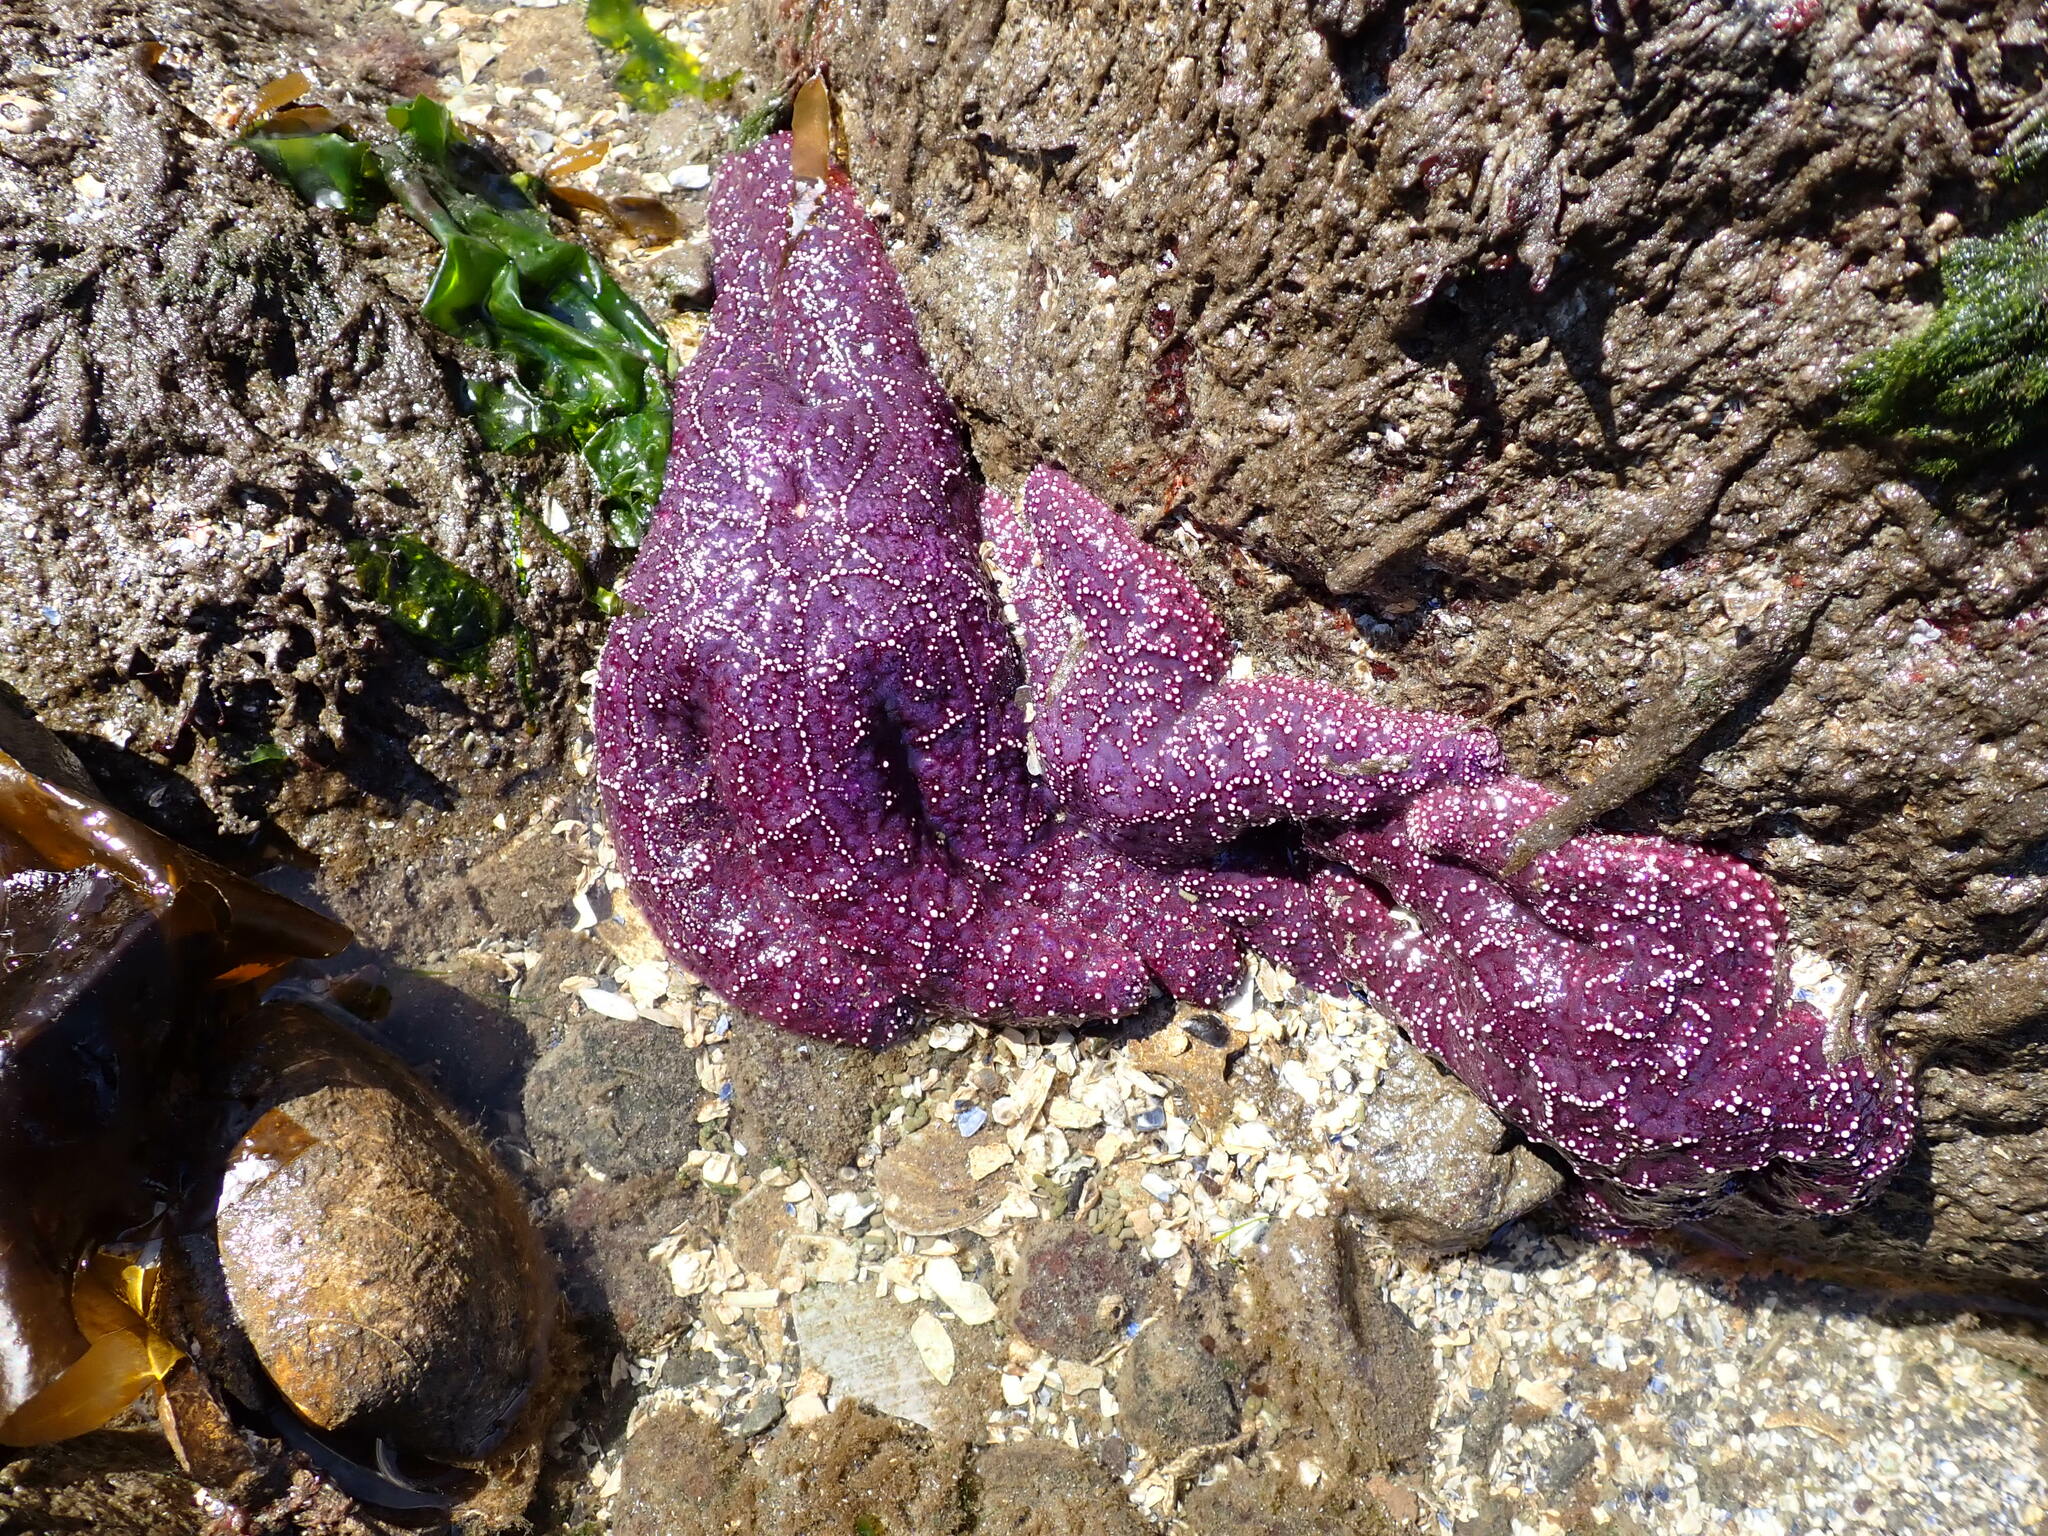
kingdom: Animalia
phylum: Echinodermata
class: Asteroidea
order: Forcipulatida
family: Asteriidae
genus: Pisaster
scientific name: Pisaster ochraceus
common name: Ochre stars
